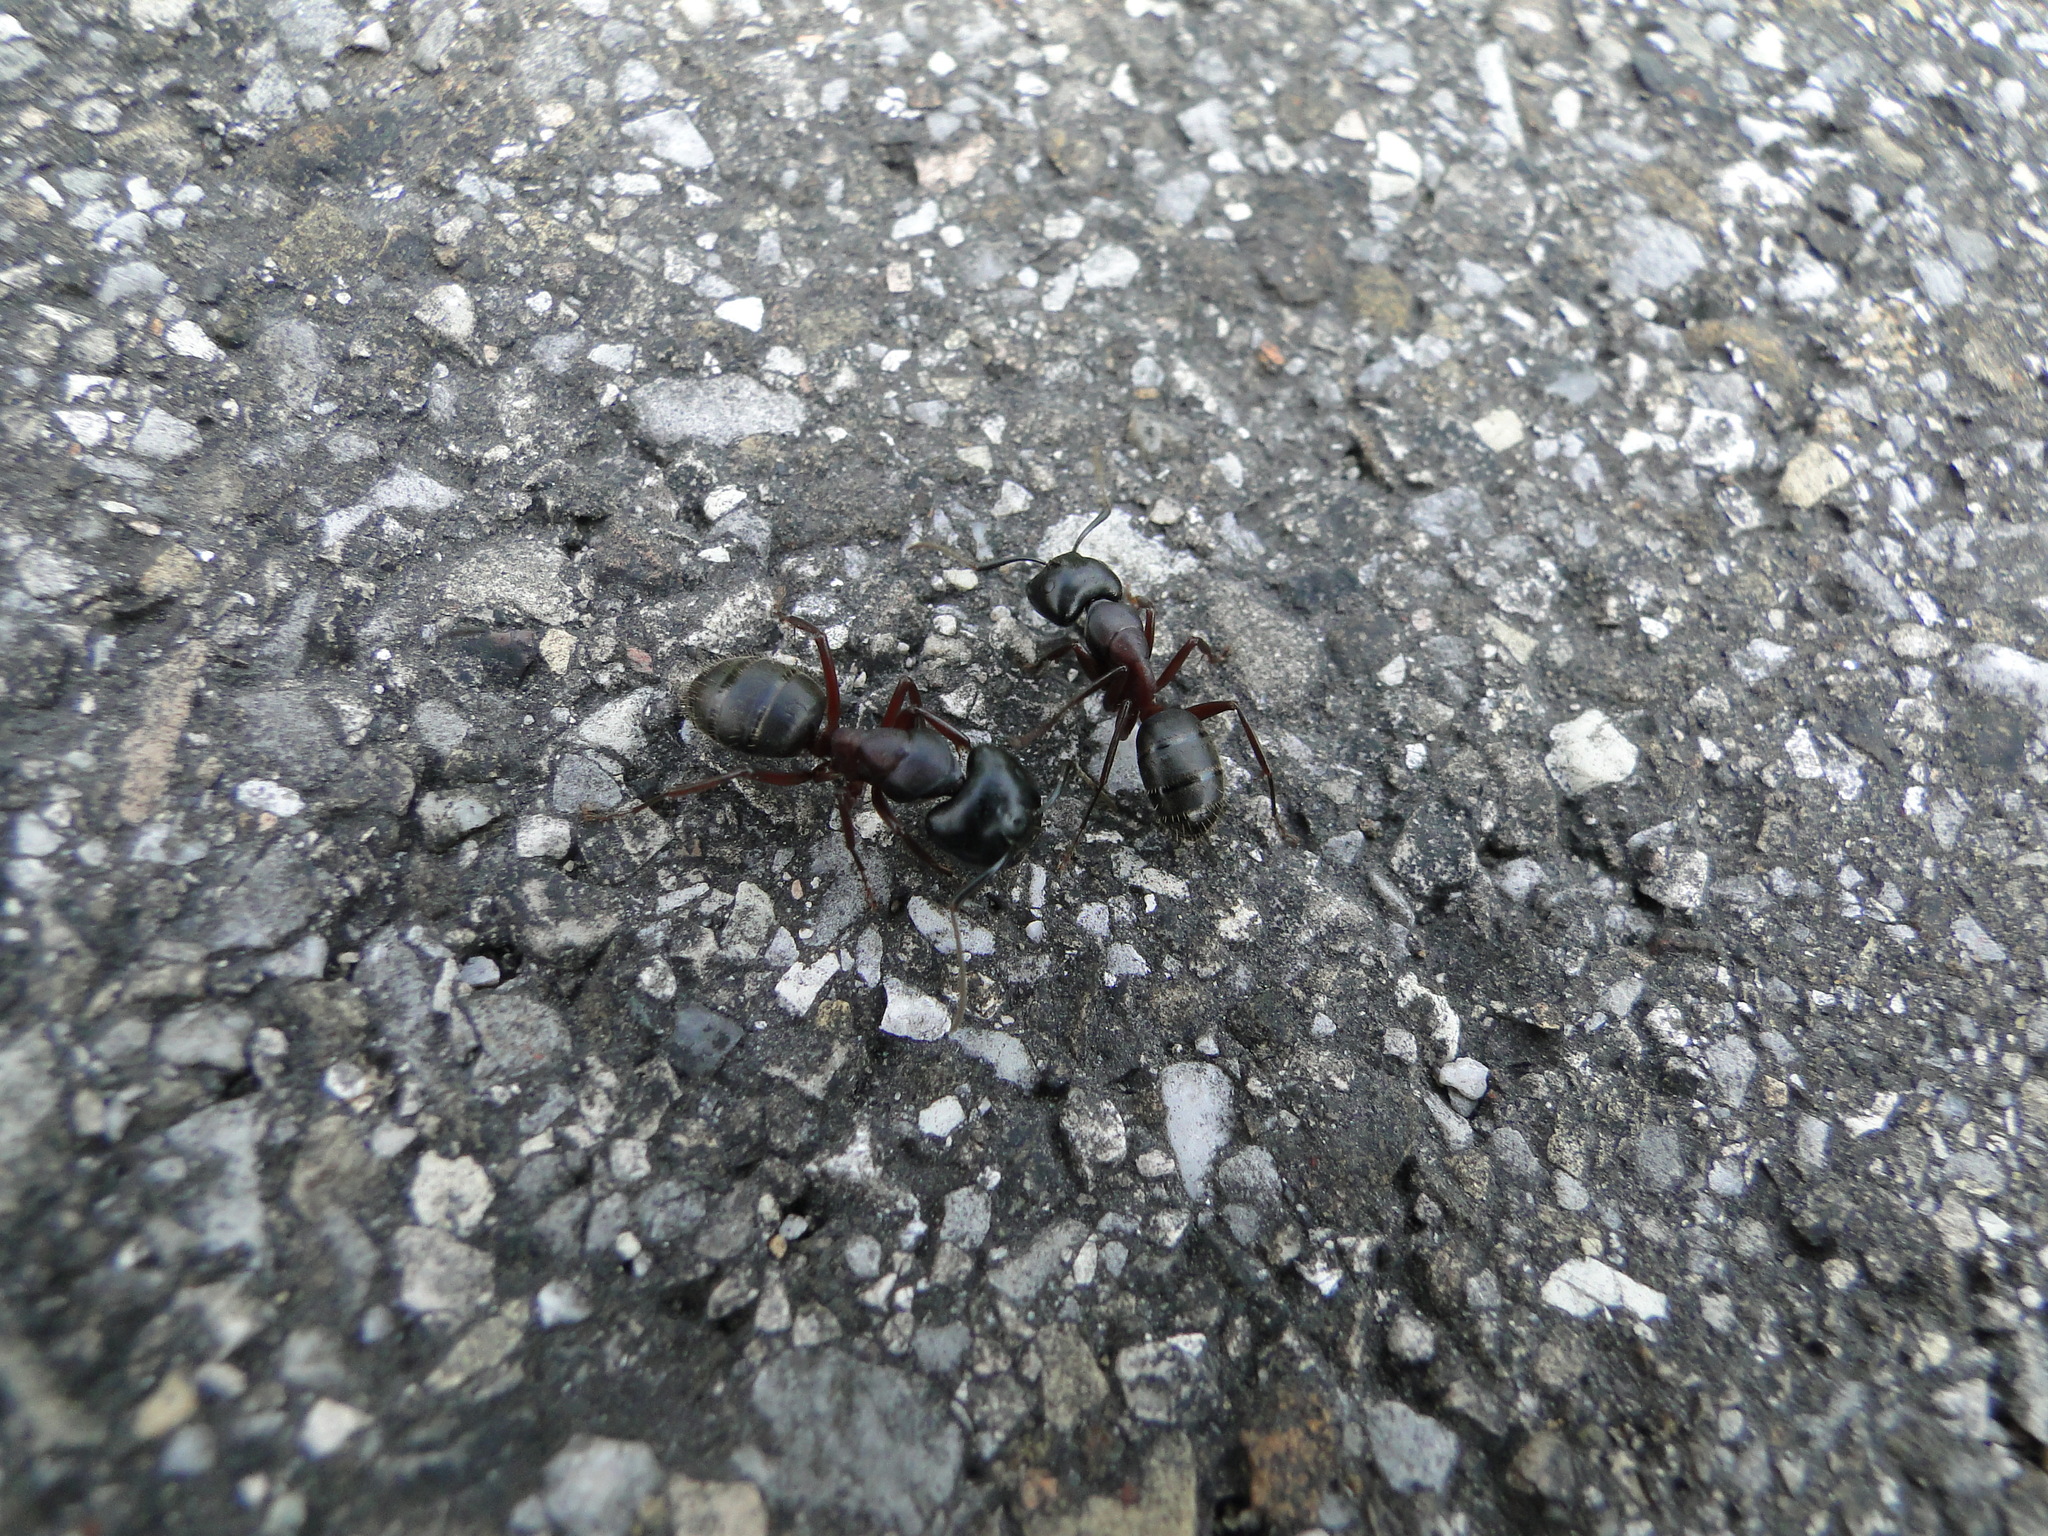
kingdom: Animalia
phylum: Arthropoda
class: Insecta
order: Hymenoptera
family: Formicidae
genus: Camponotus
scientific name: Camponotus herculeanus
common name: Hercules ant
